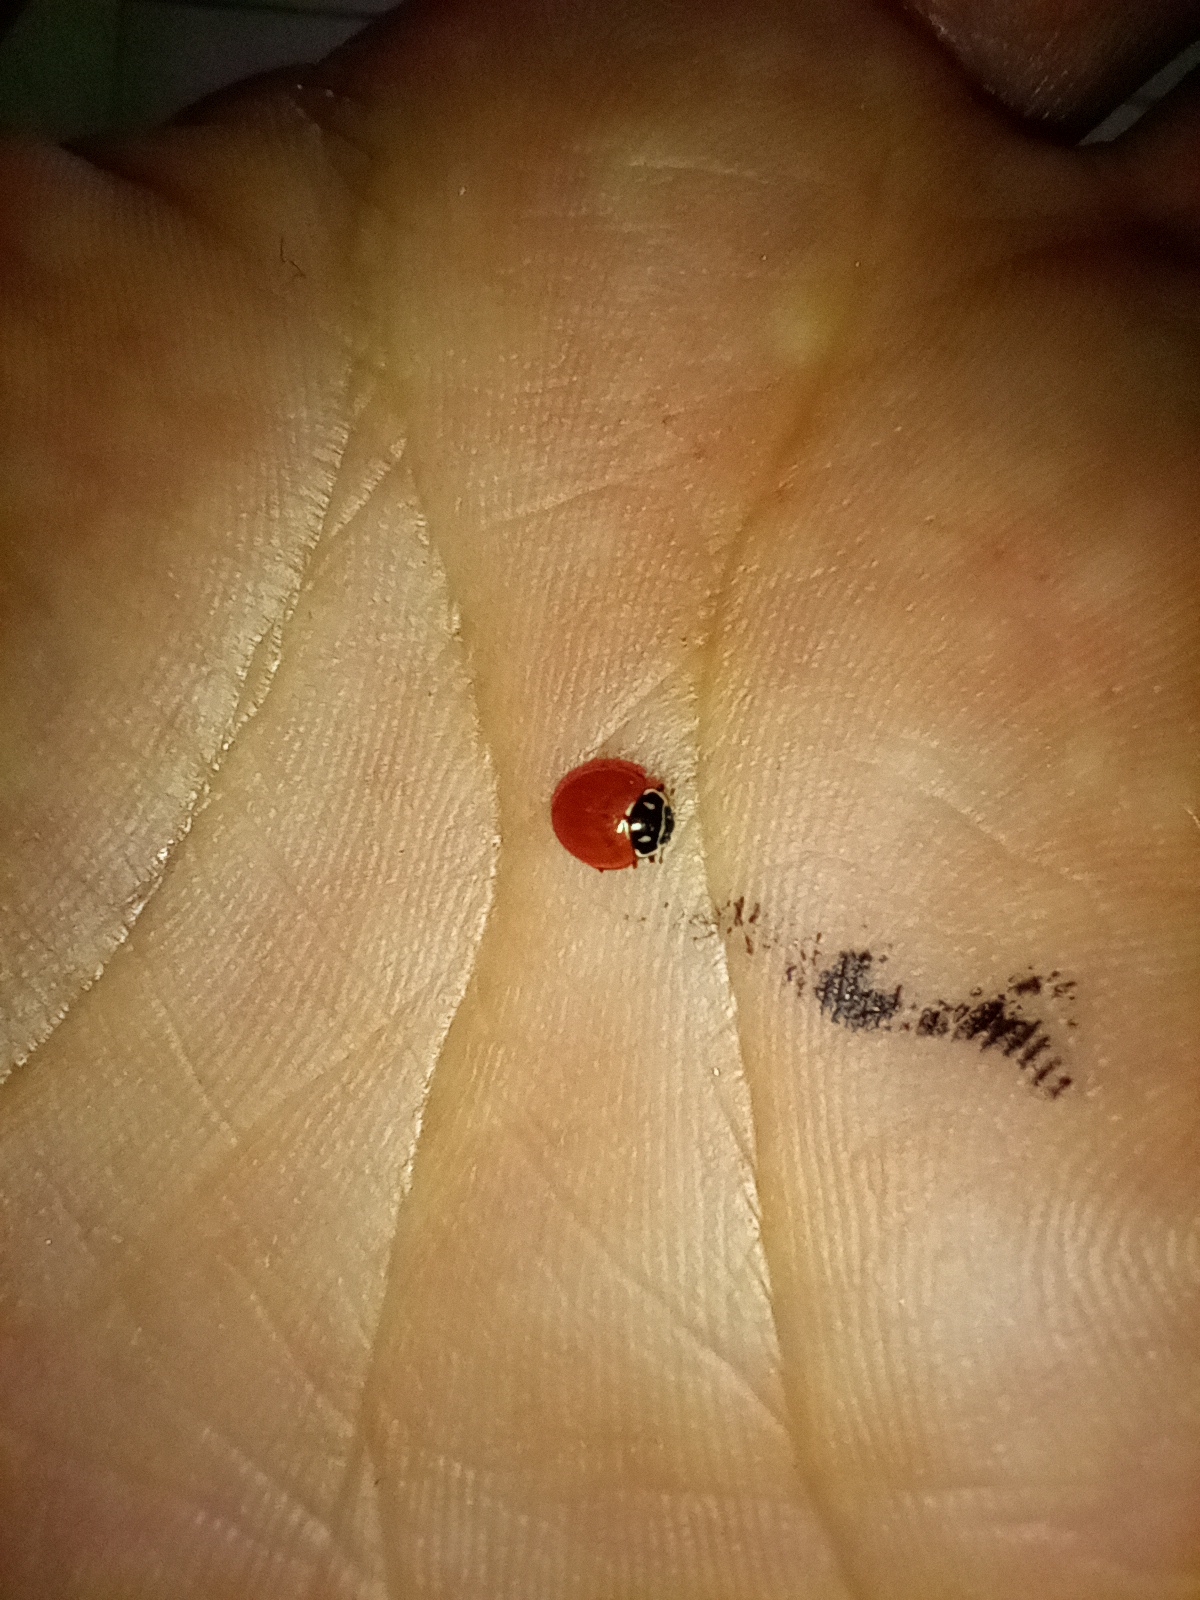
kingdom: Animalia
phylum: Arthropoda
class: Insecta
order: Coleoptera
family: Coccinellidae
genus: Cycloneda
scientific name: Cycloneda emarginata
